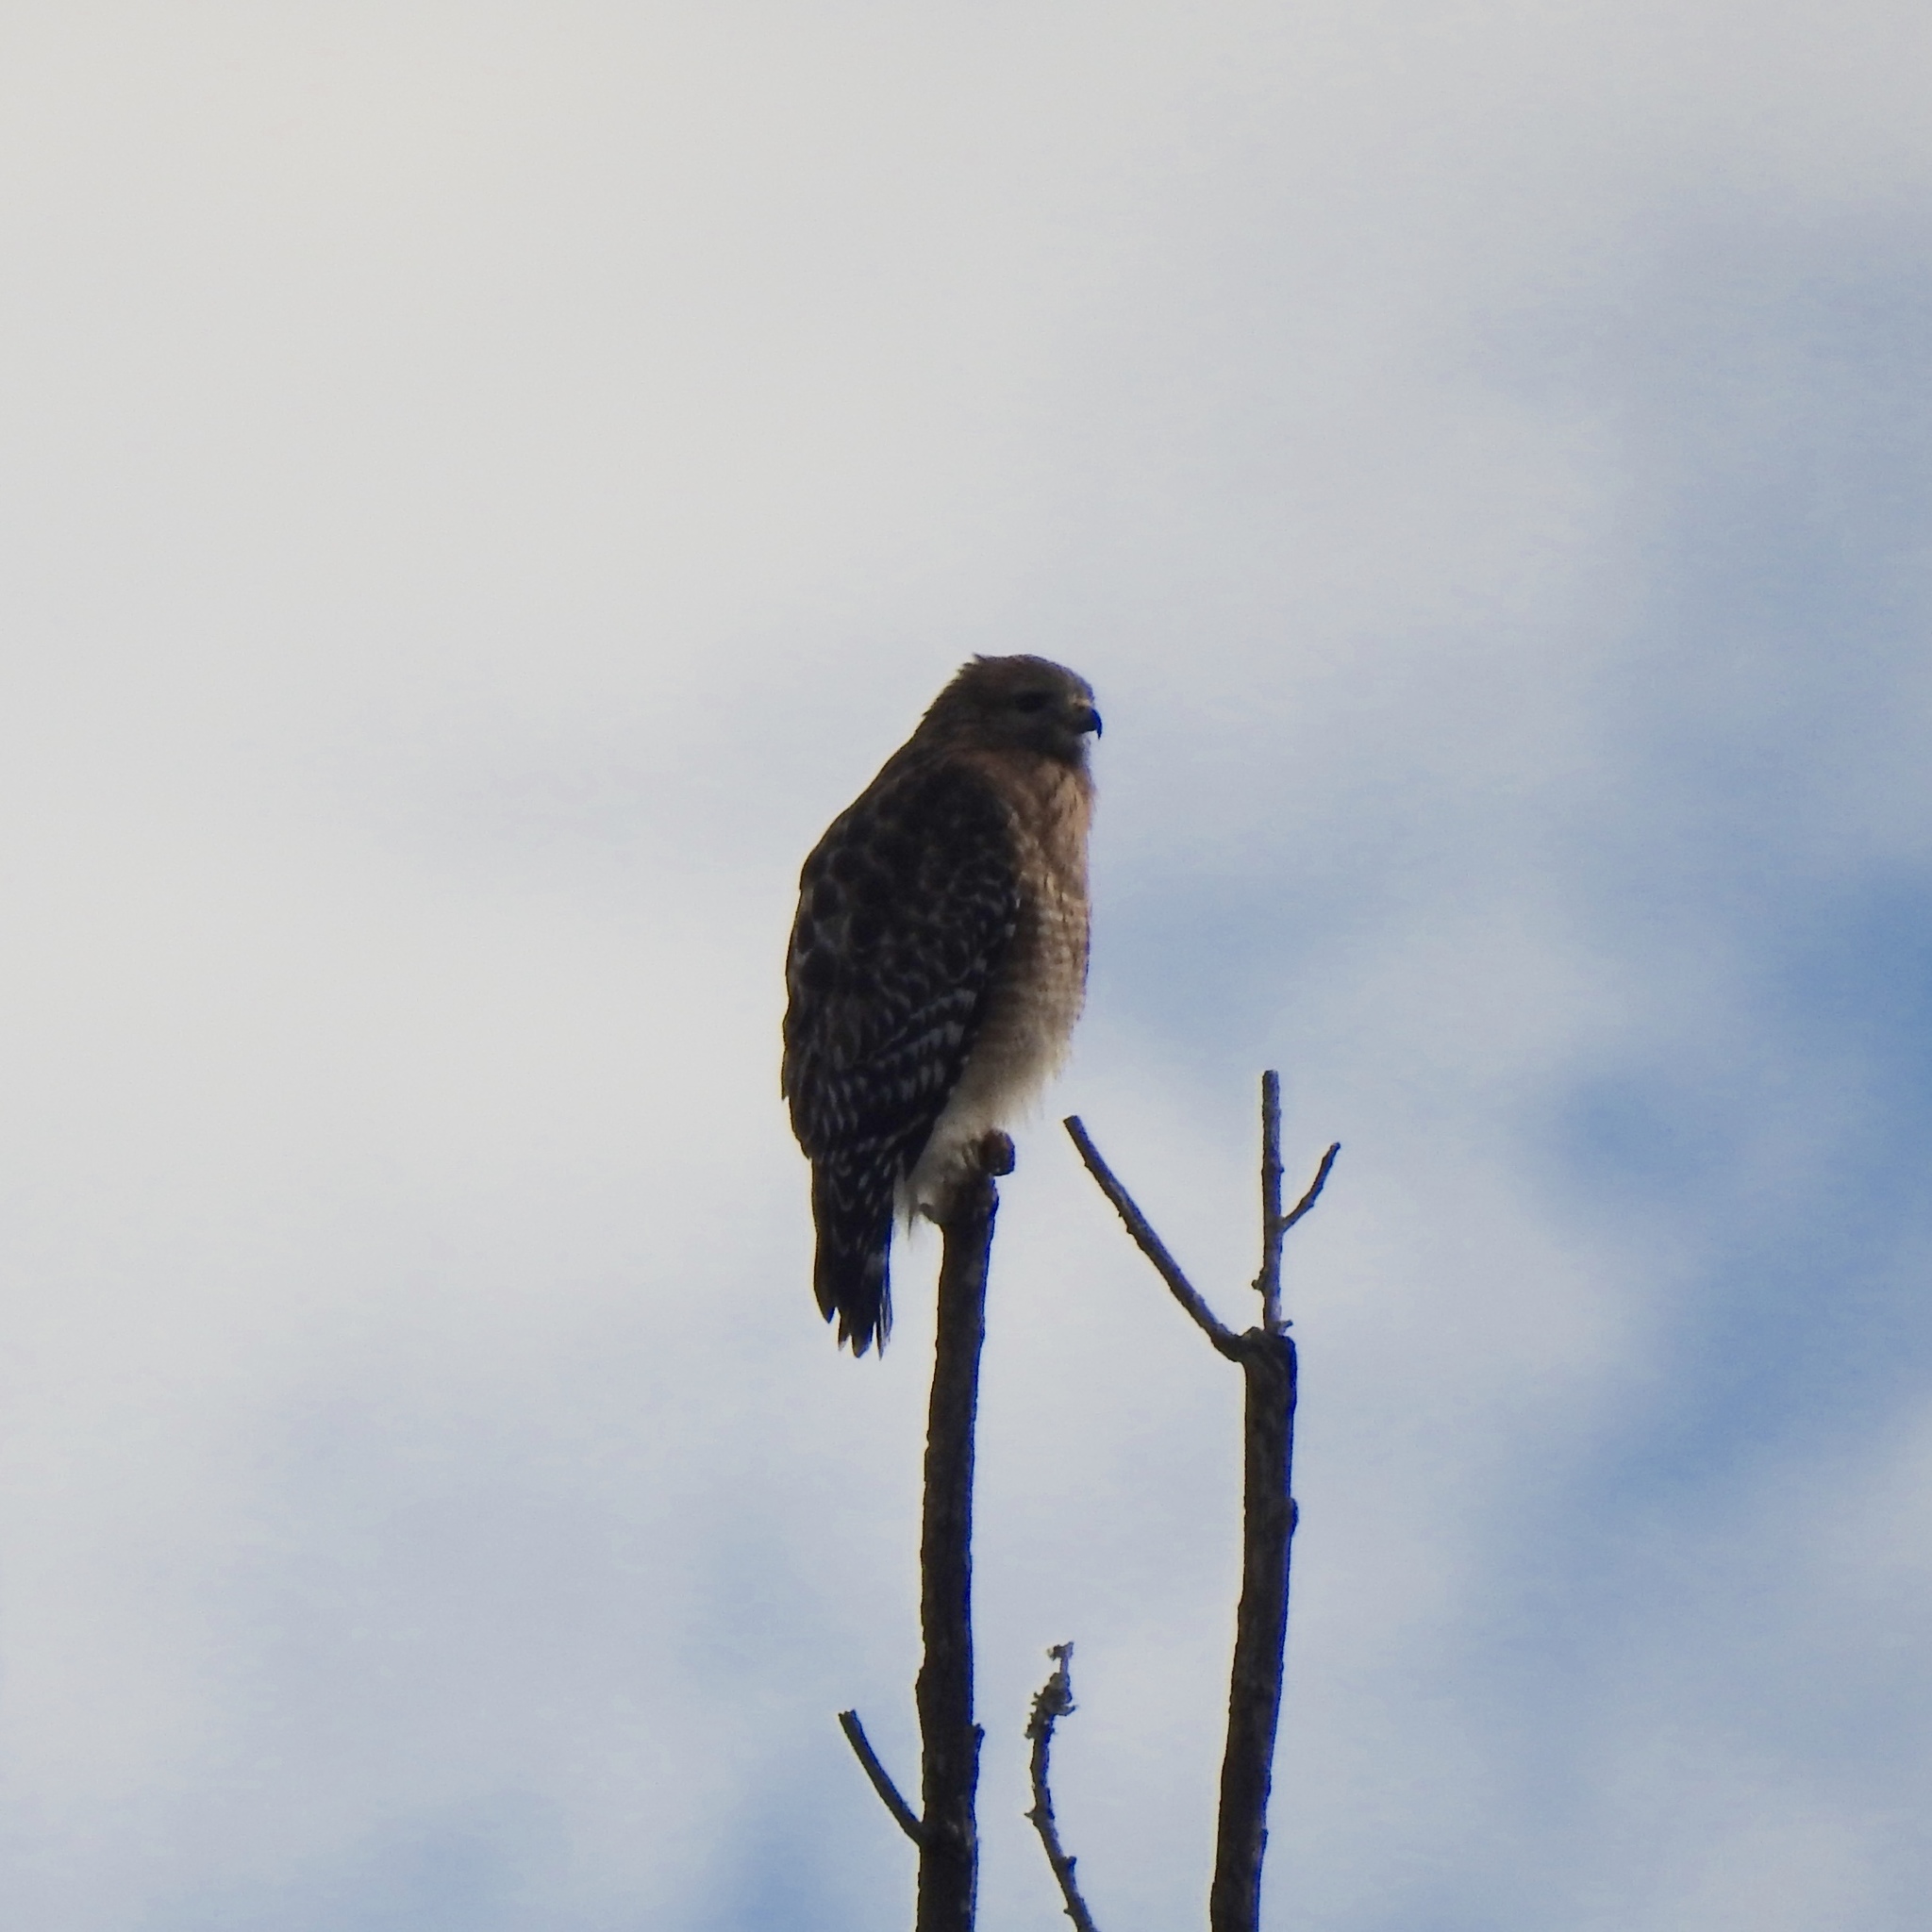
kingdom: Animalia
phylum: Chordata
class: Aves
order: Accipitriformes
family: Accipitridae
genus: Buteo
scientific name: Buteo lineatus
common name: Red-shouldered hawk
